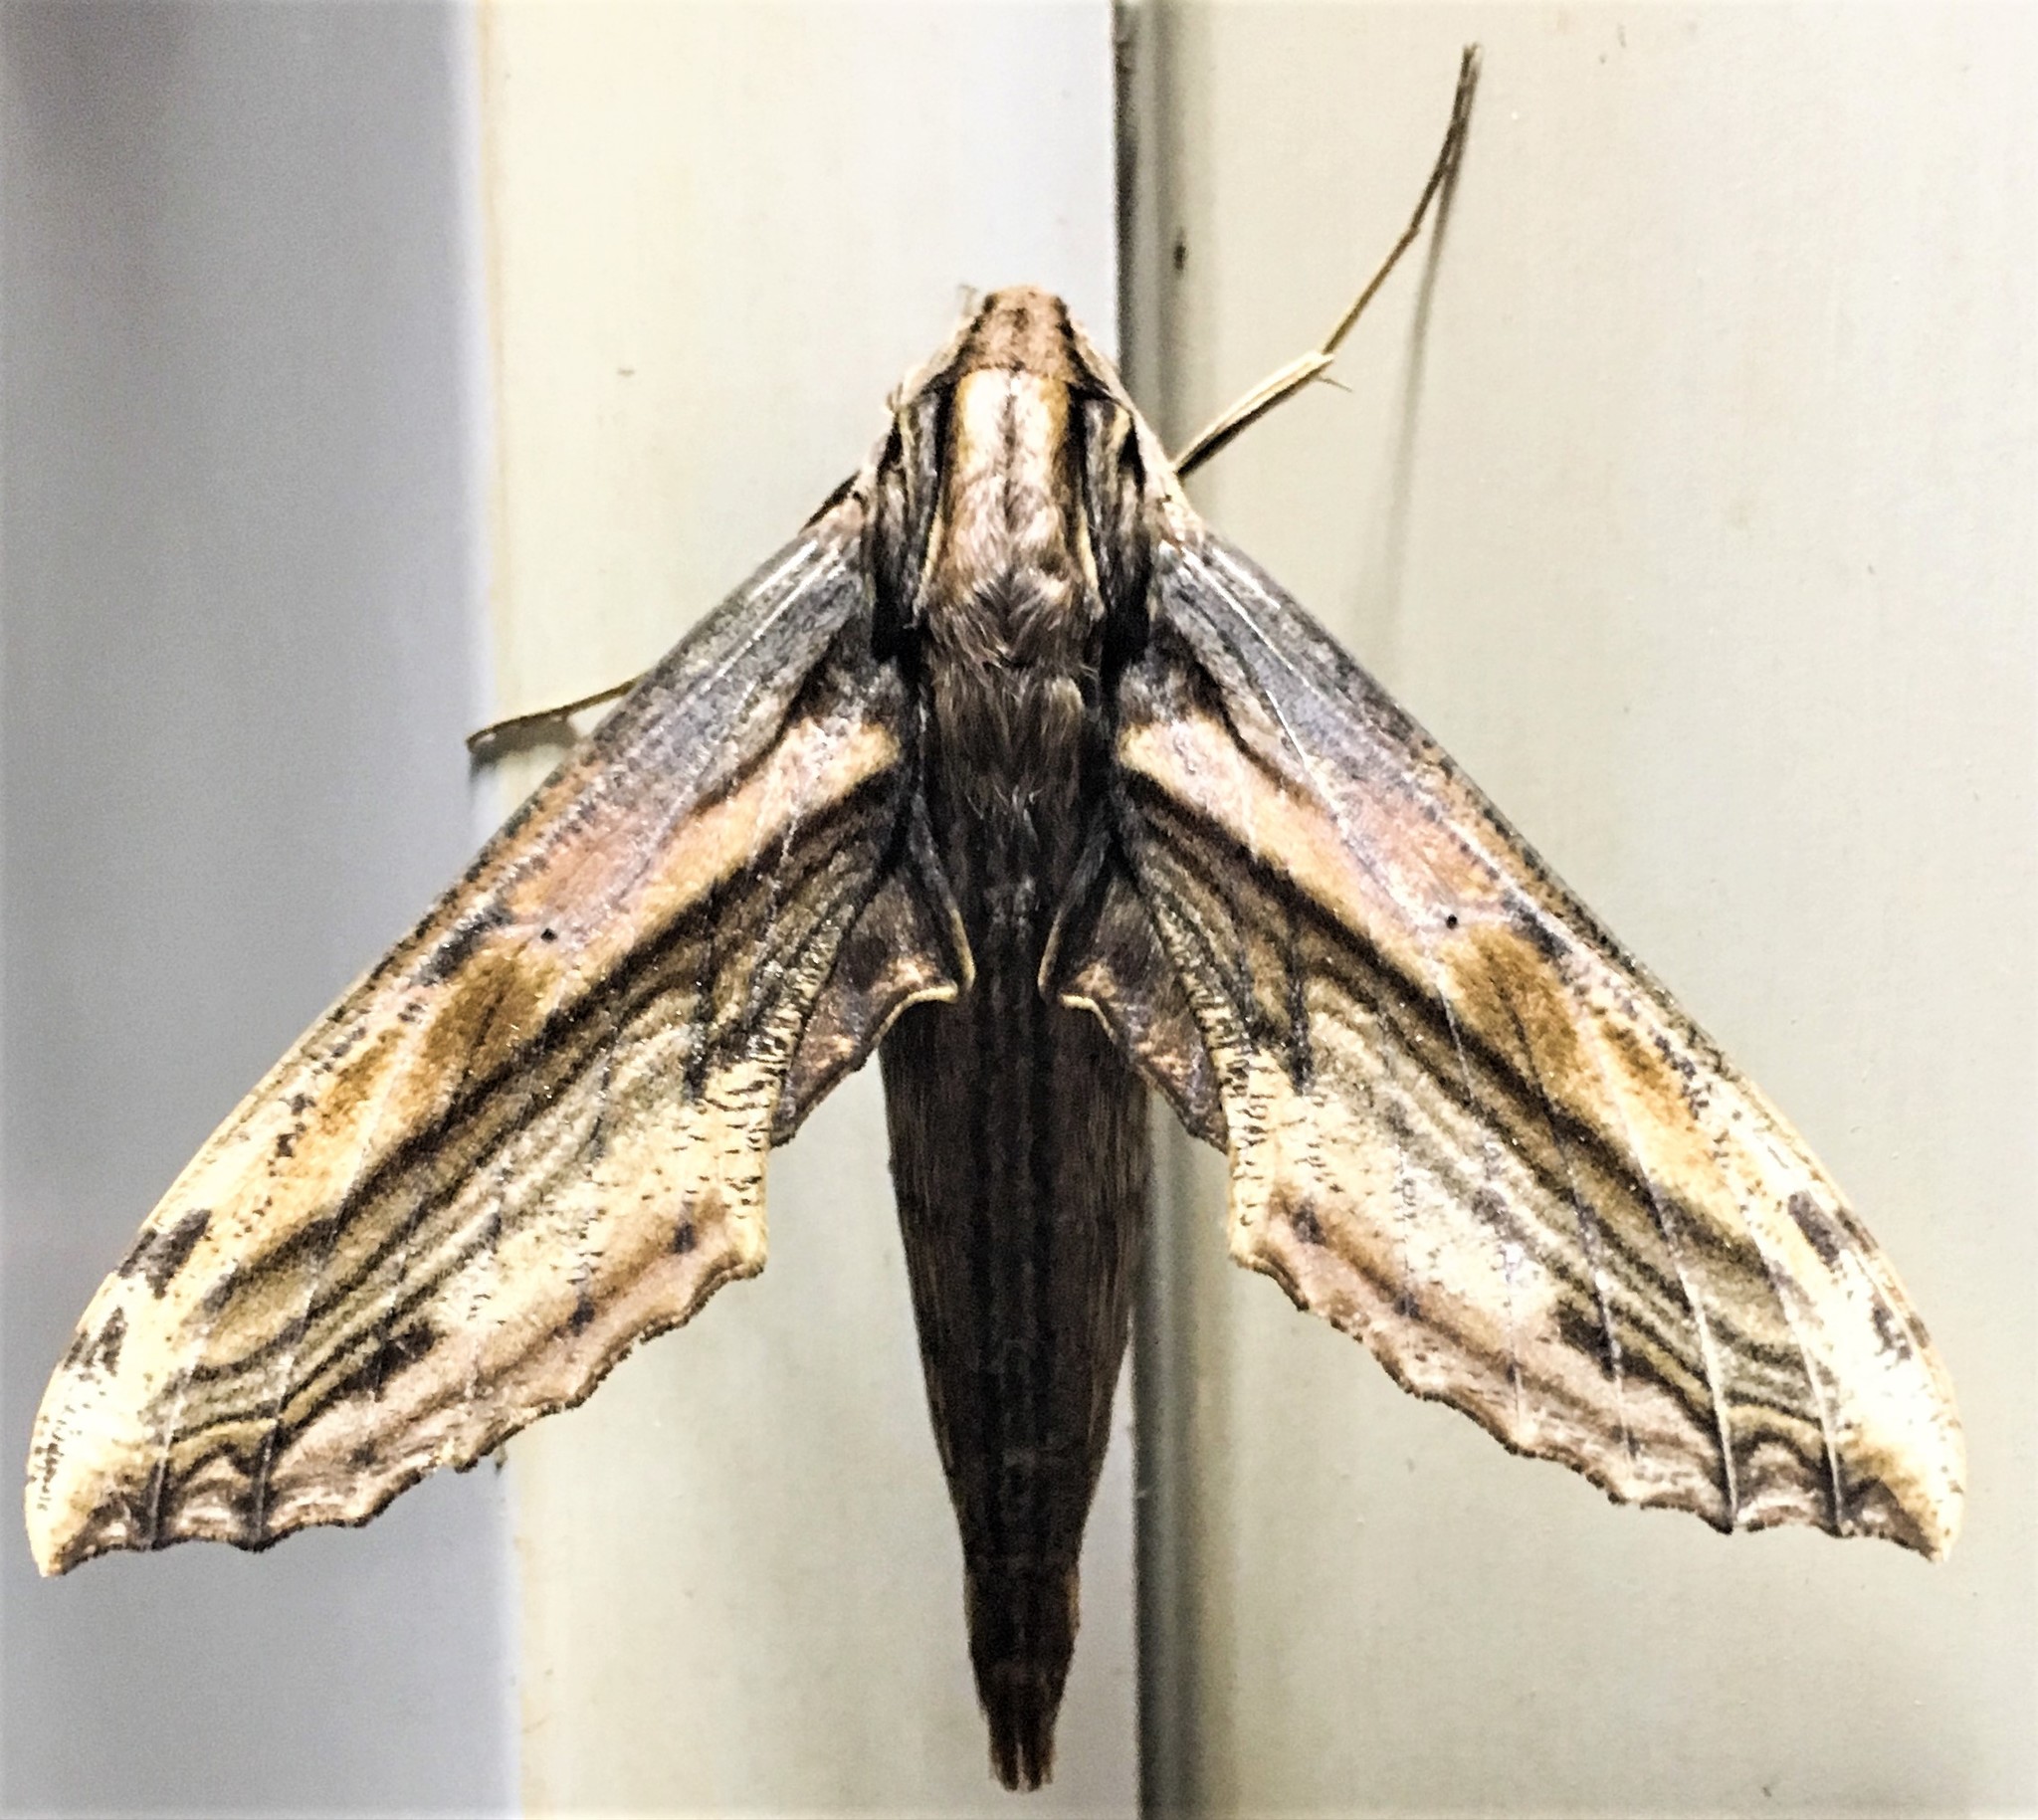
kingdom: Animalia
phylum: Arthropoda
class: Insecta
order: Lepidoptera
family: Sphingidae
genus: Xylophanes
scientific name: Xylophanes guianensis
